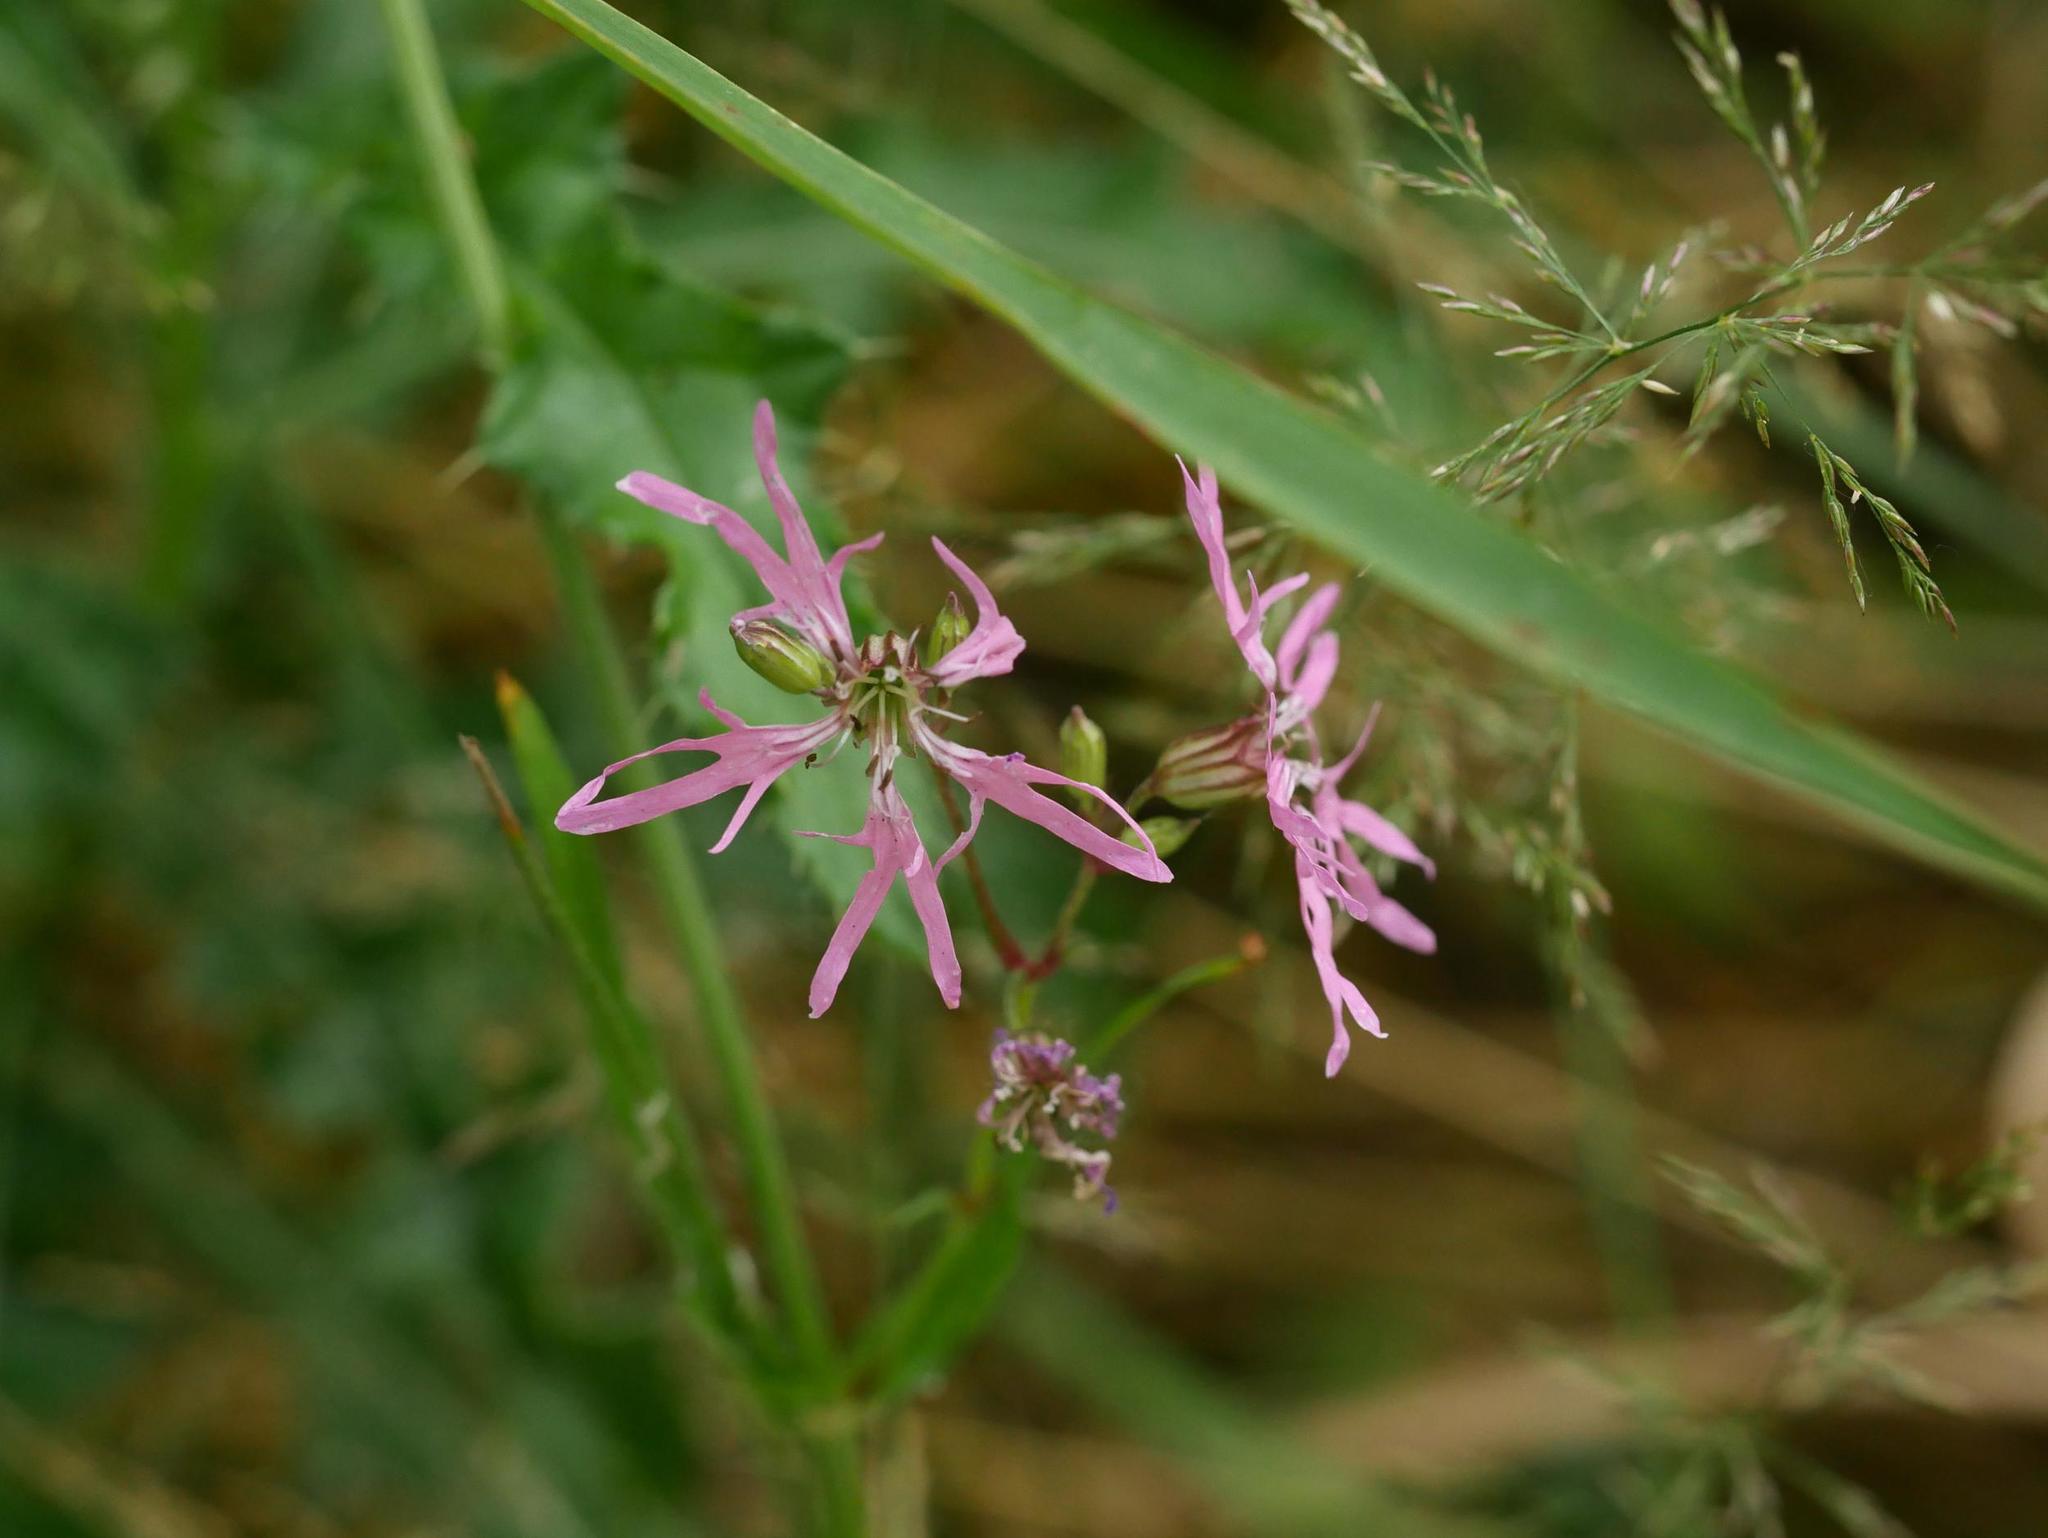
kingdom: Plantae
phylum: Tracheophyta
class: Magnoliopsida
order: Caryophyllales
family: Caryophyllaceae
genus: Silene
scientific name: Silene flos-cuculi
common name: Ragged-robin
